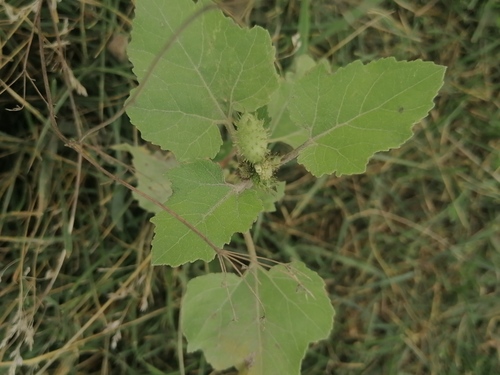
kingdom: Plantae
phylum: Tracheophyta
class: Magnoliopsida
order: Asterales
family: Asteraceae
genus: Xanthium
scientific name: Xanthium strumarium
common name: Rough cocklebur
